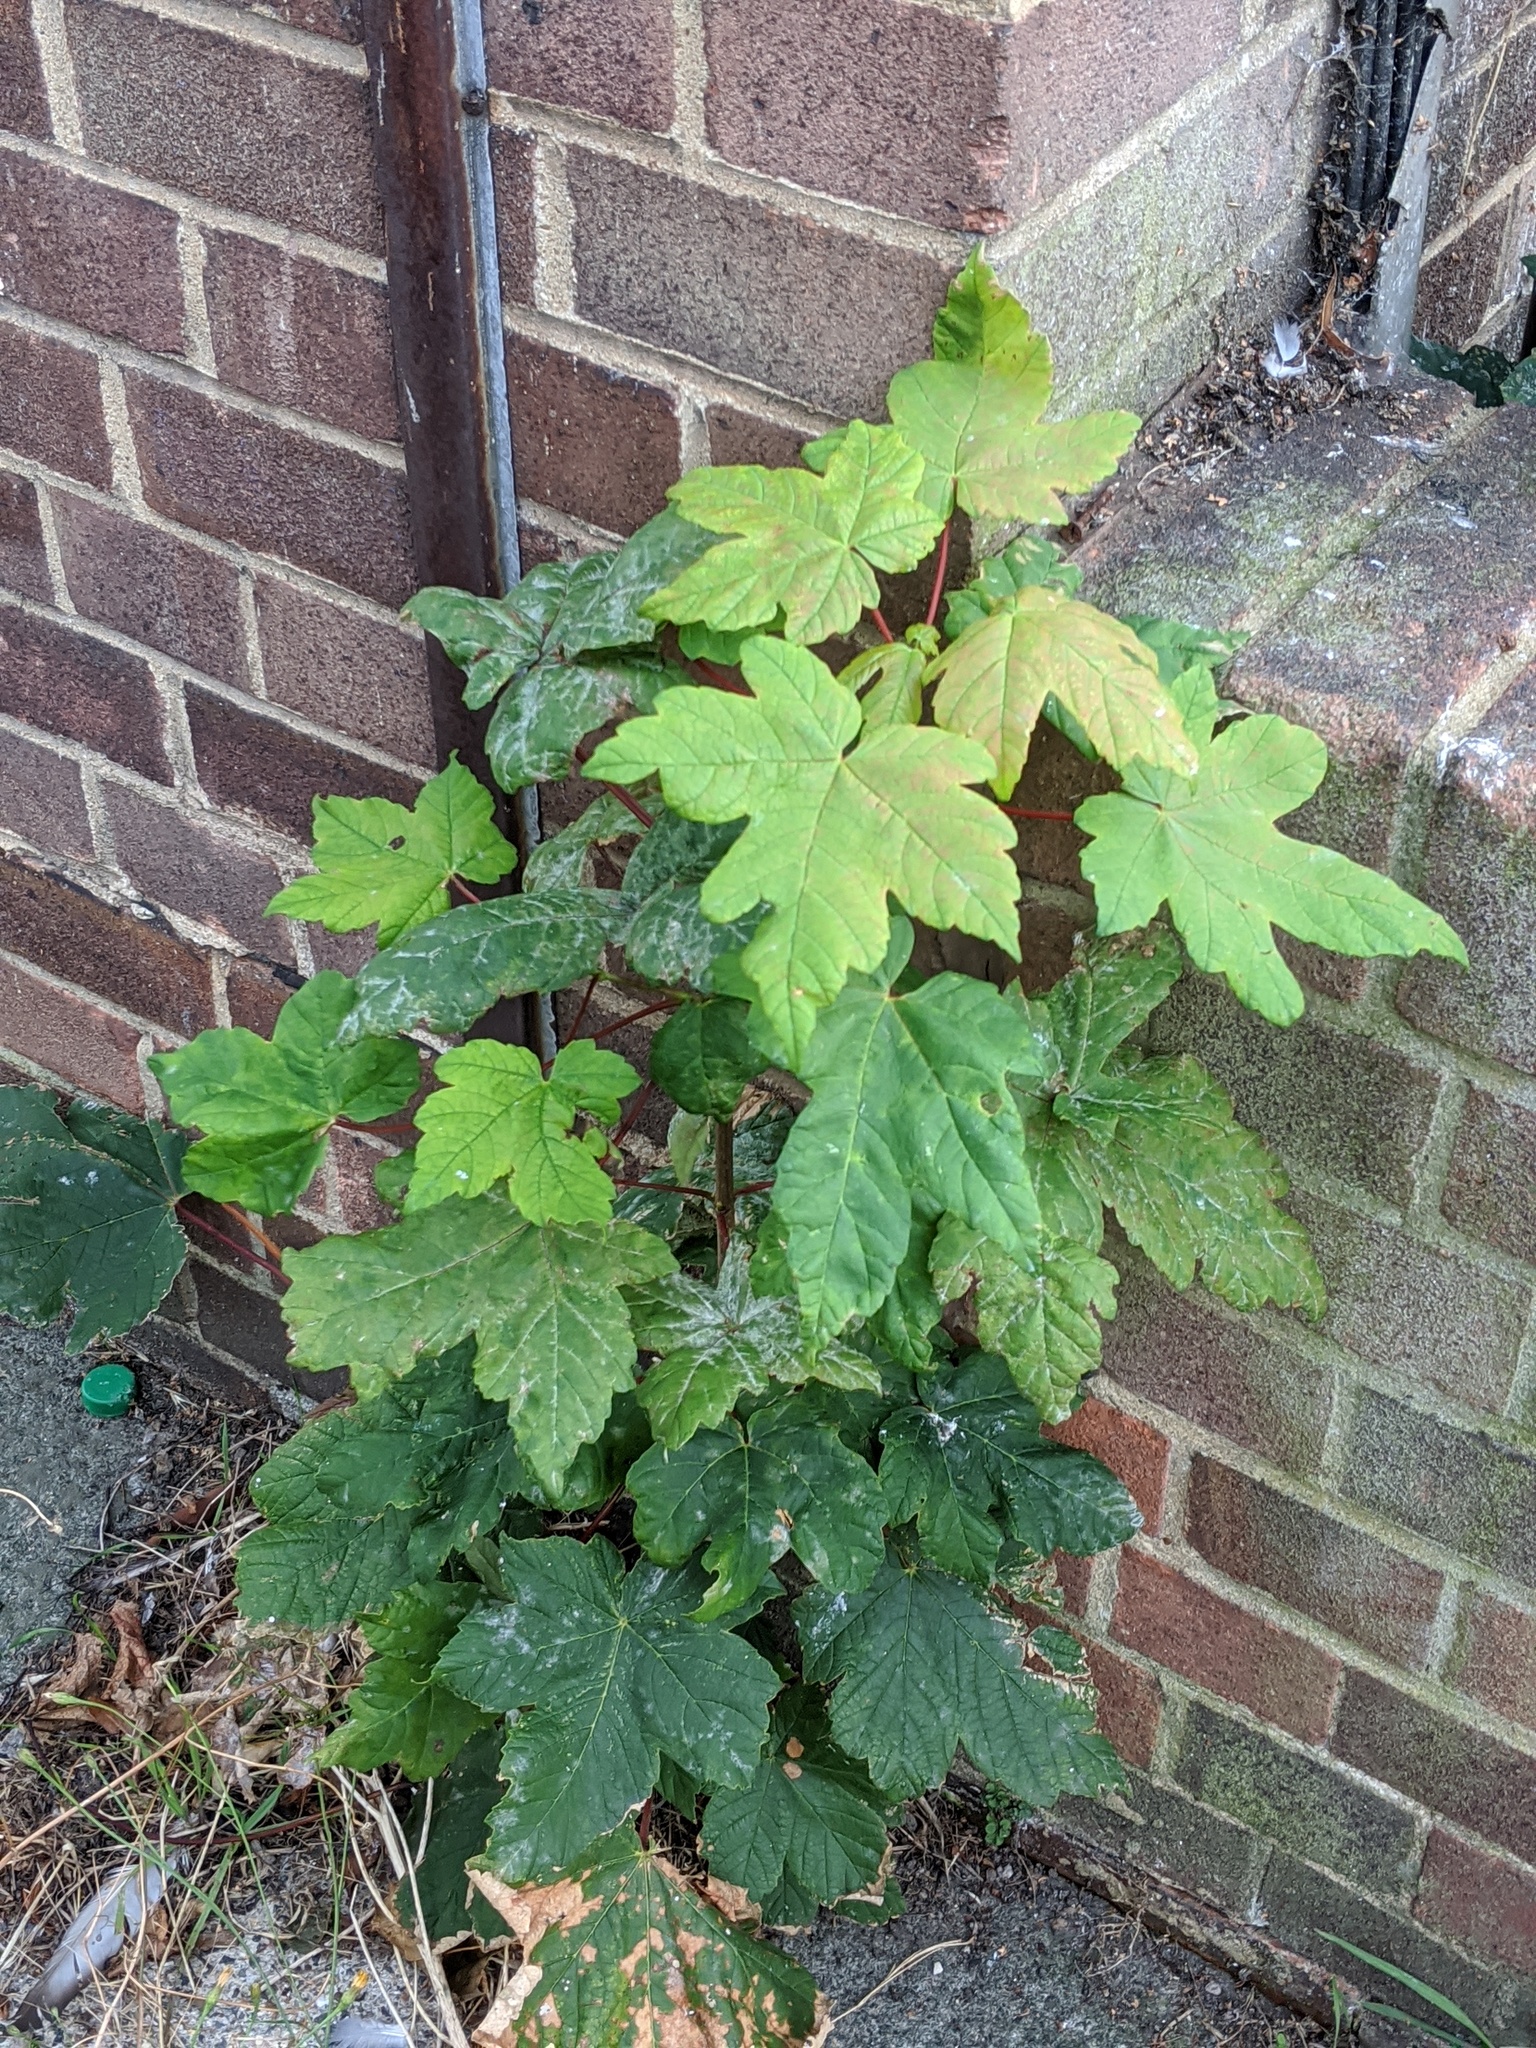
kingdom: Plantae
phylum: Tracheophyta
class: Magnoliopsida
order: Sapindales
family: Sapindaceae
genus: Acer
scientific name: Acer pseudoplatanus
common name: Sycamore
